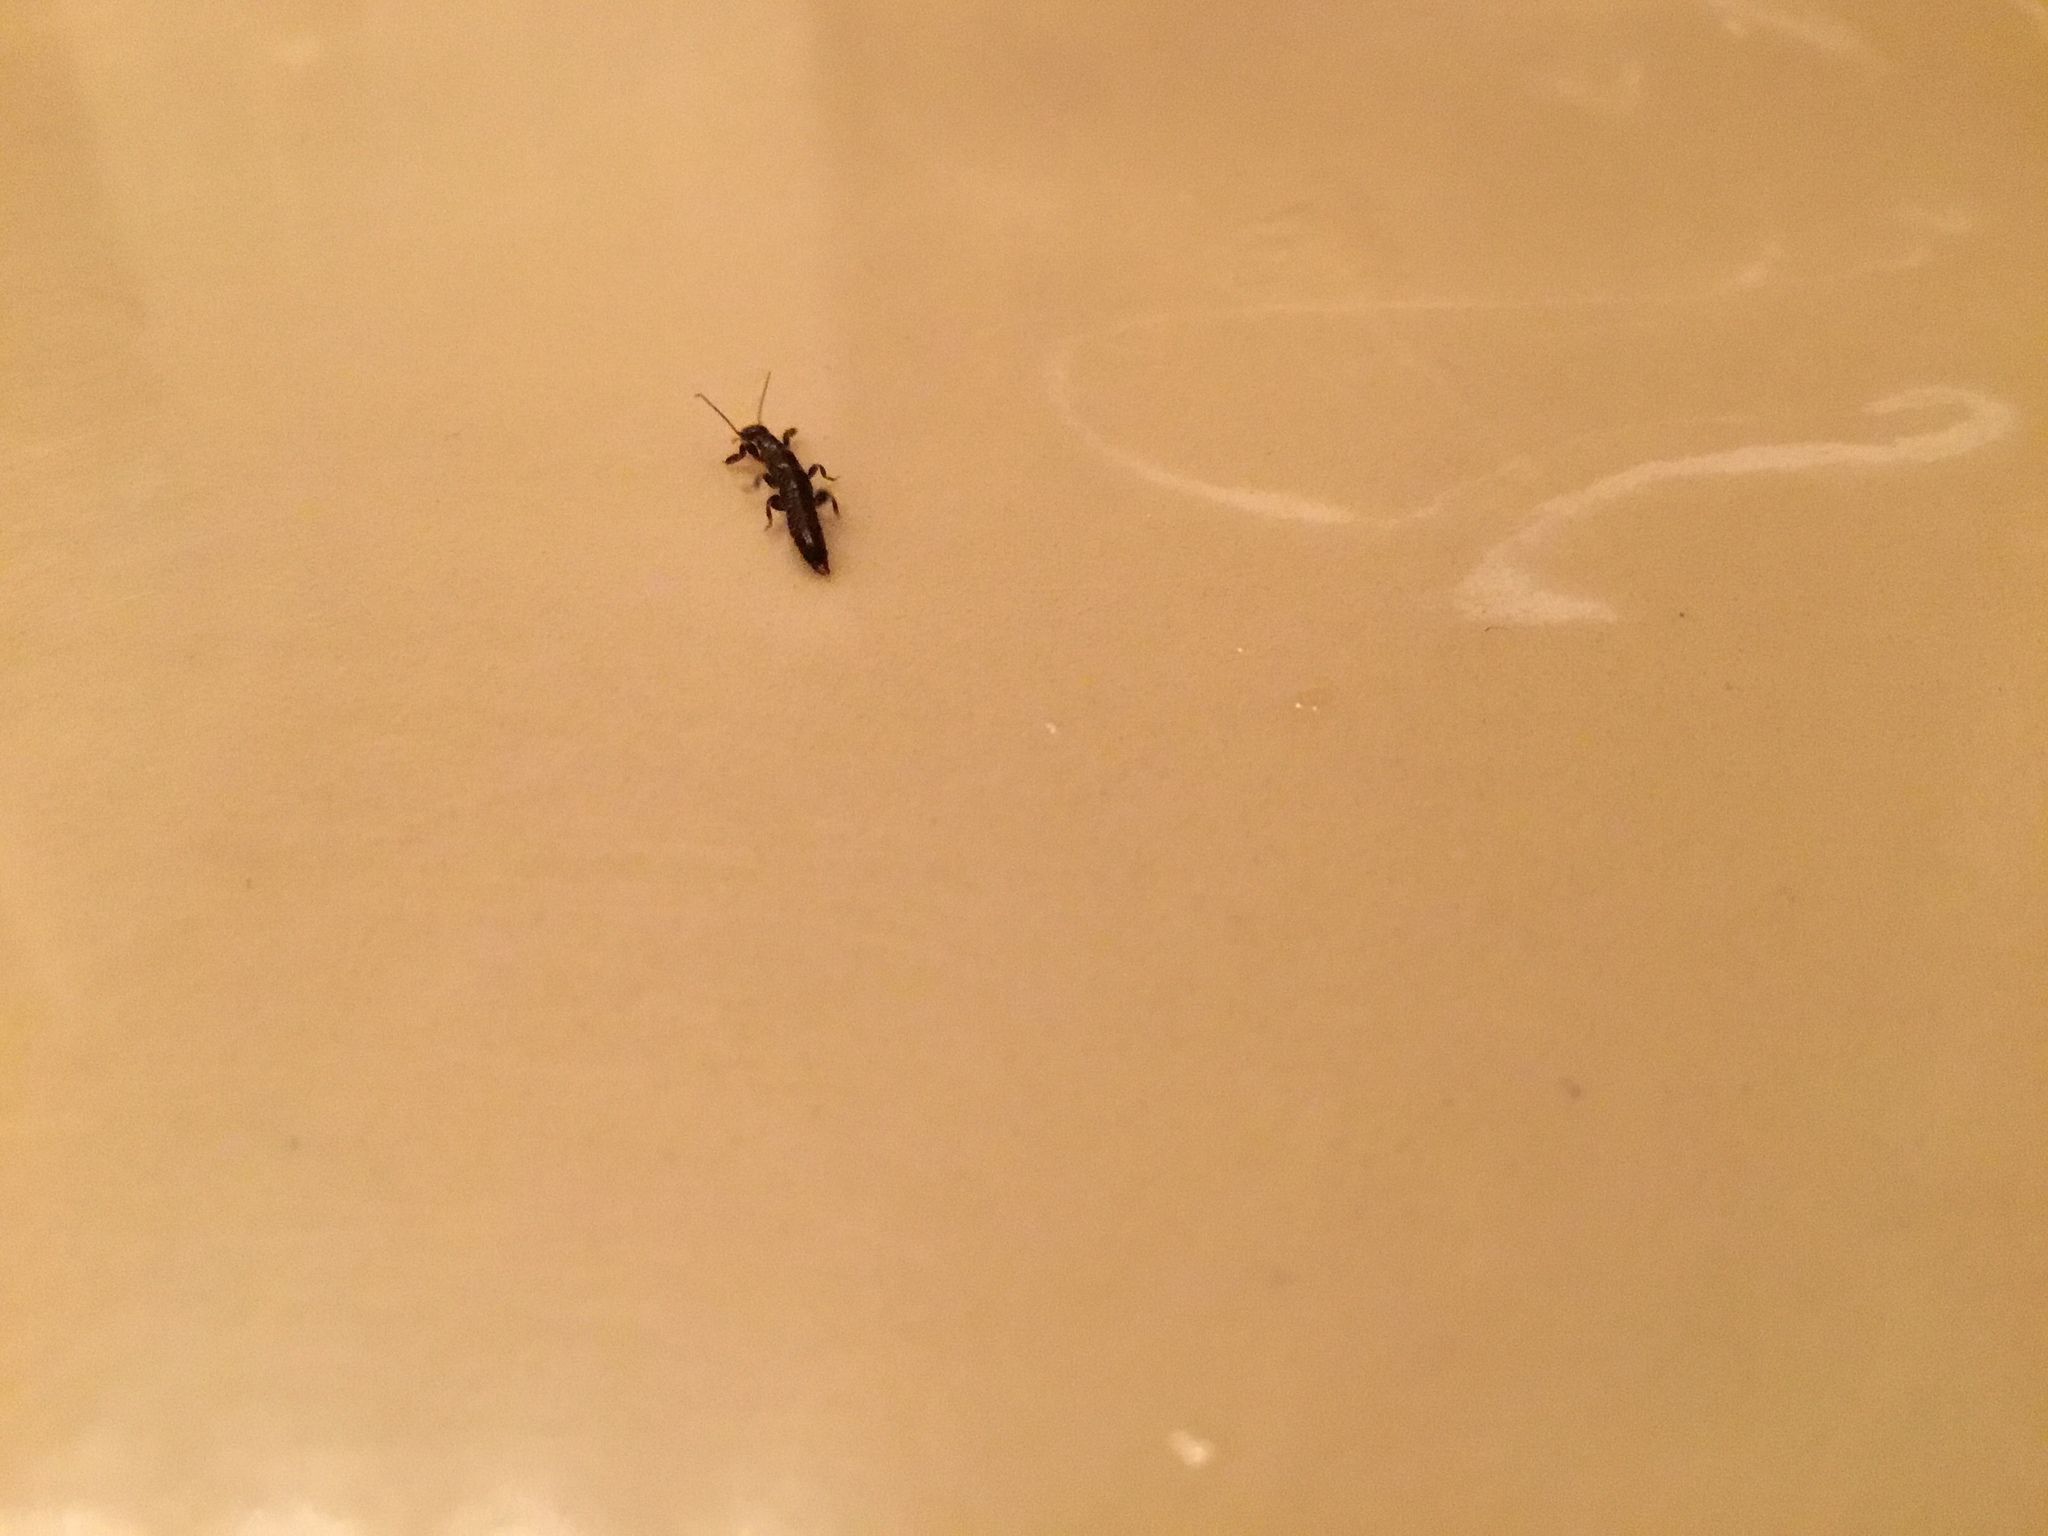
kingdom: Animalia
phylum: Arthropoda
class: Insecta
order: Embioptera
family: Oligotomidae
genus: Oligotoma
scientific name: Oligotoma nigra
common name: Black webspinner
